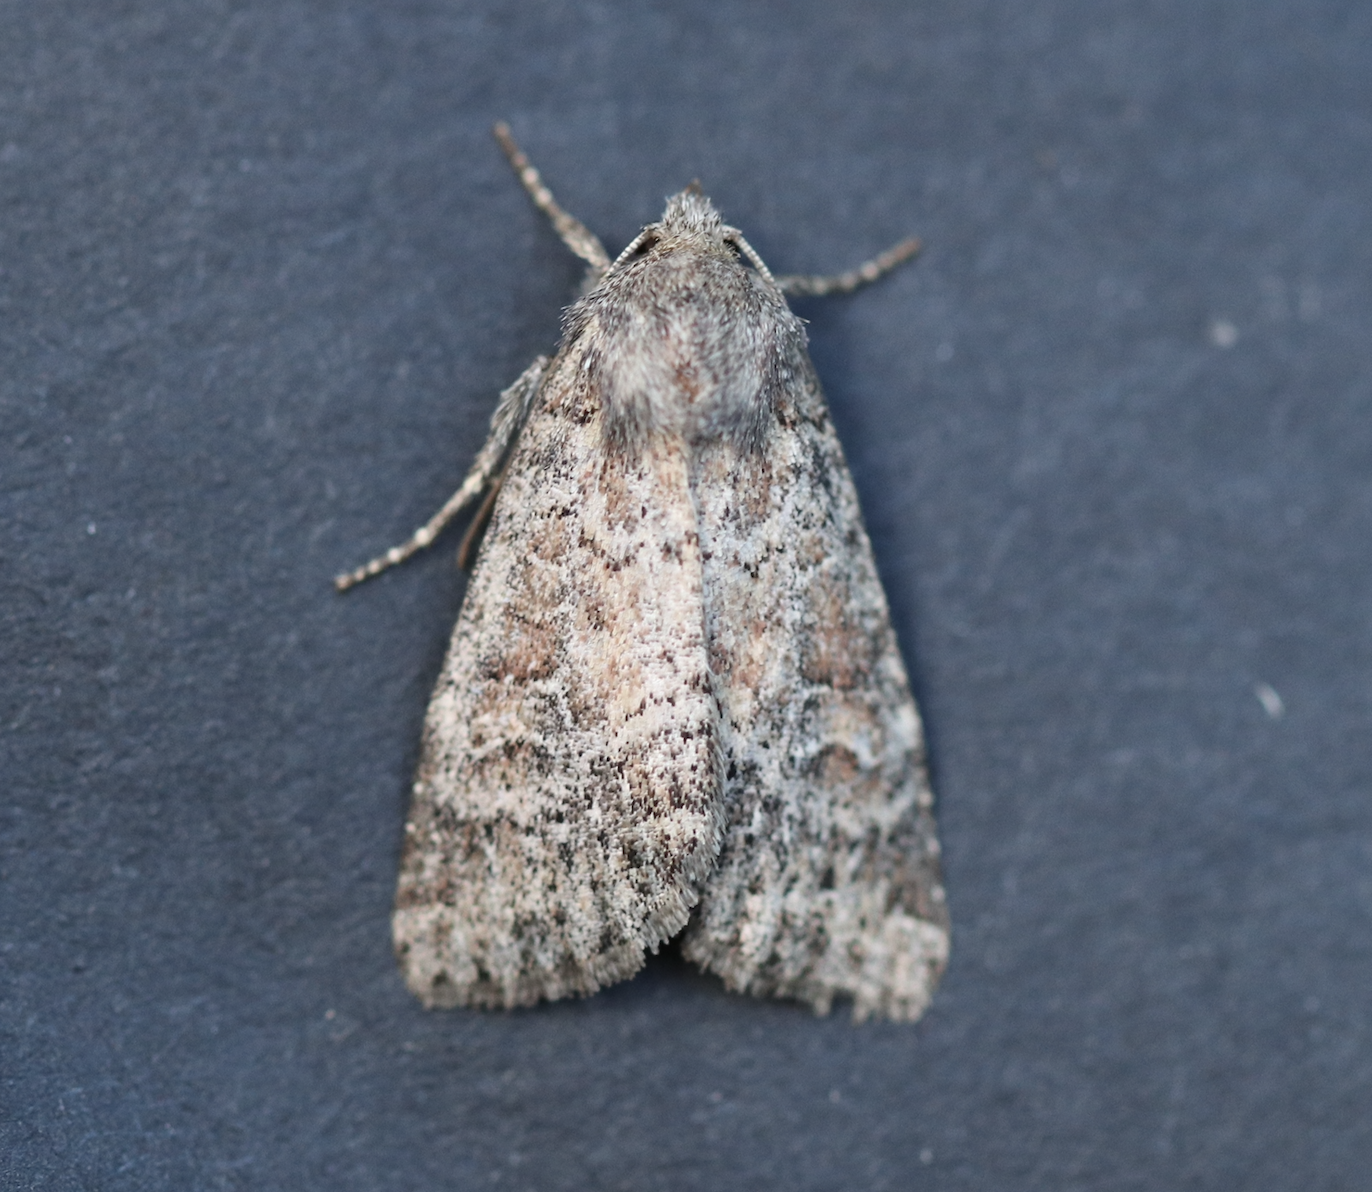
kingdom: Animalia
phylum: Arthropoda
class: Insecta
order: Lepidoptera
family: Noctuidae
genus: Parastichtis
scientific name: Parastichtis suspecta
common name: Suspected
